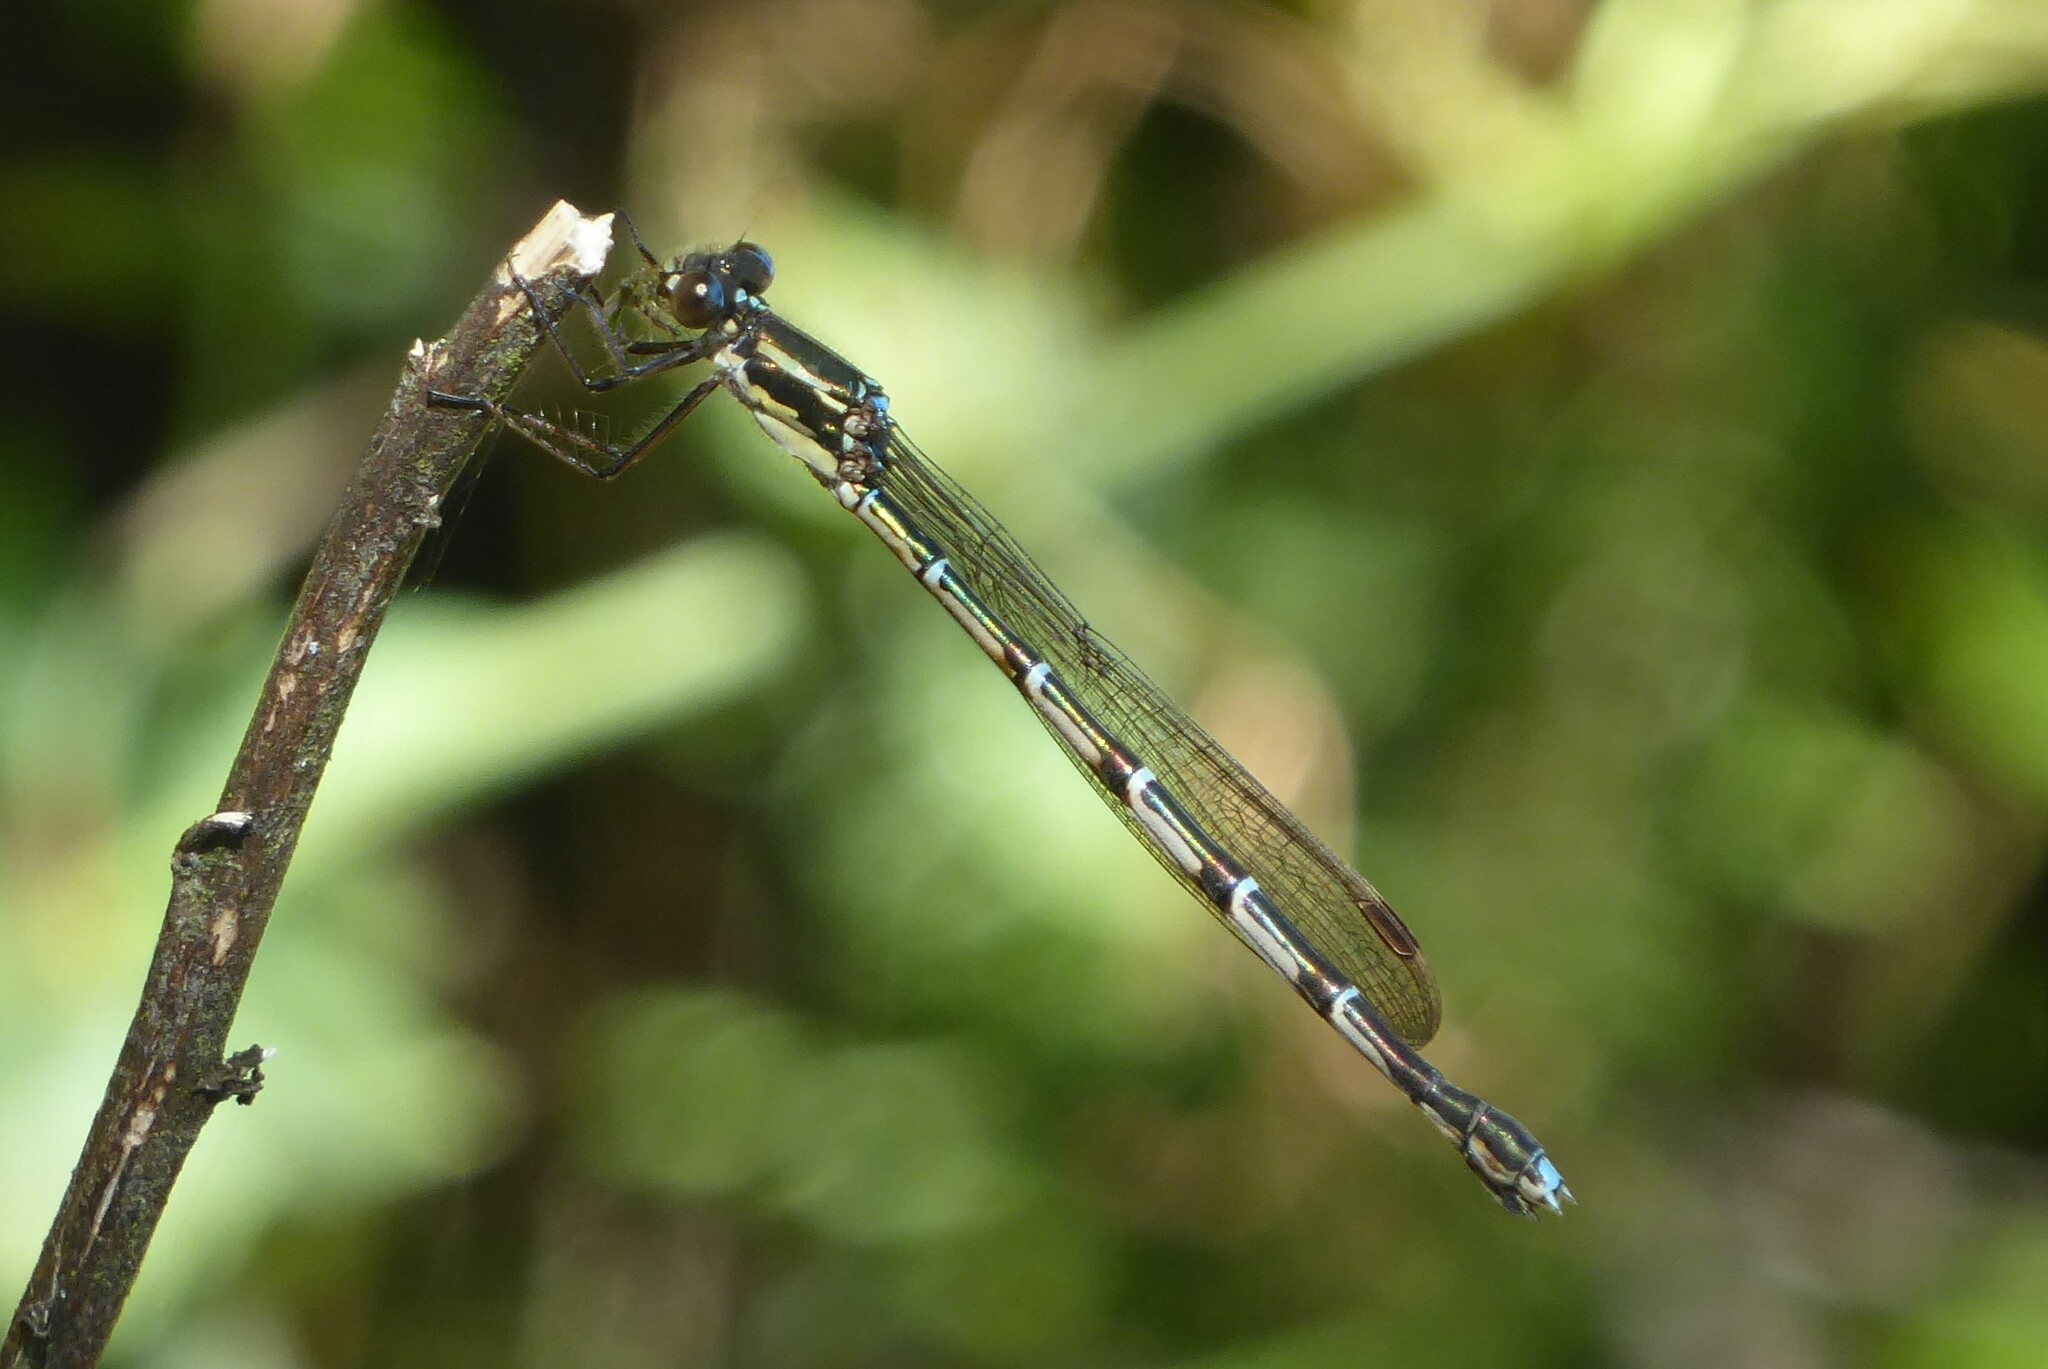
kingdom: Animalia
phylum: Arthropoda
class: Insecta
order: Odonata
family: Lestidae
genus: Austrolestes
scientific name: Austrolestes colensonis
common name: Blue damselfly
